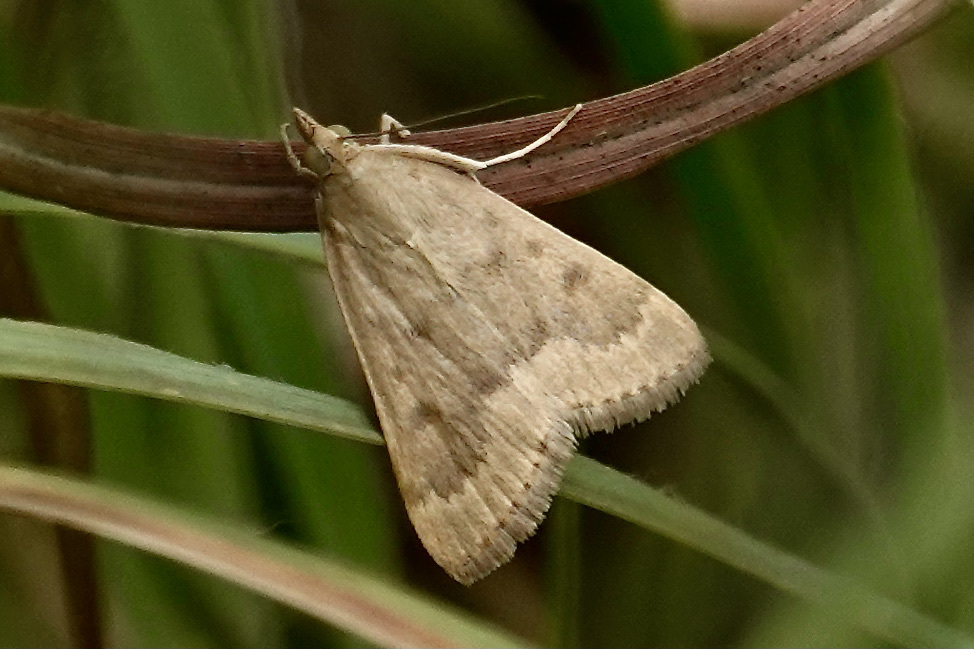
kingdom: Animalia
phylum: Arthropoda
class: Insecta
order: Lepidoptera
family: Crambidae
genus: Achyra
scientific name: Achyra rantalis
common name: Garden webworm
